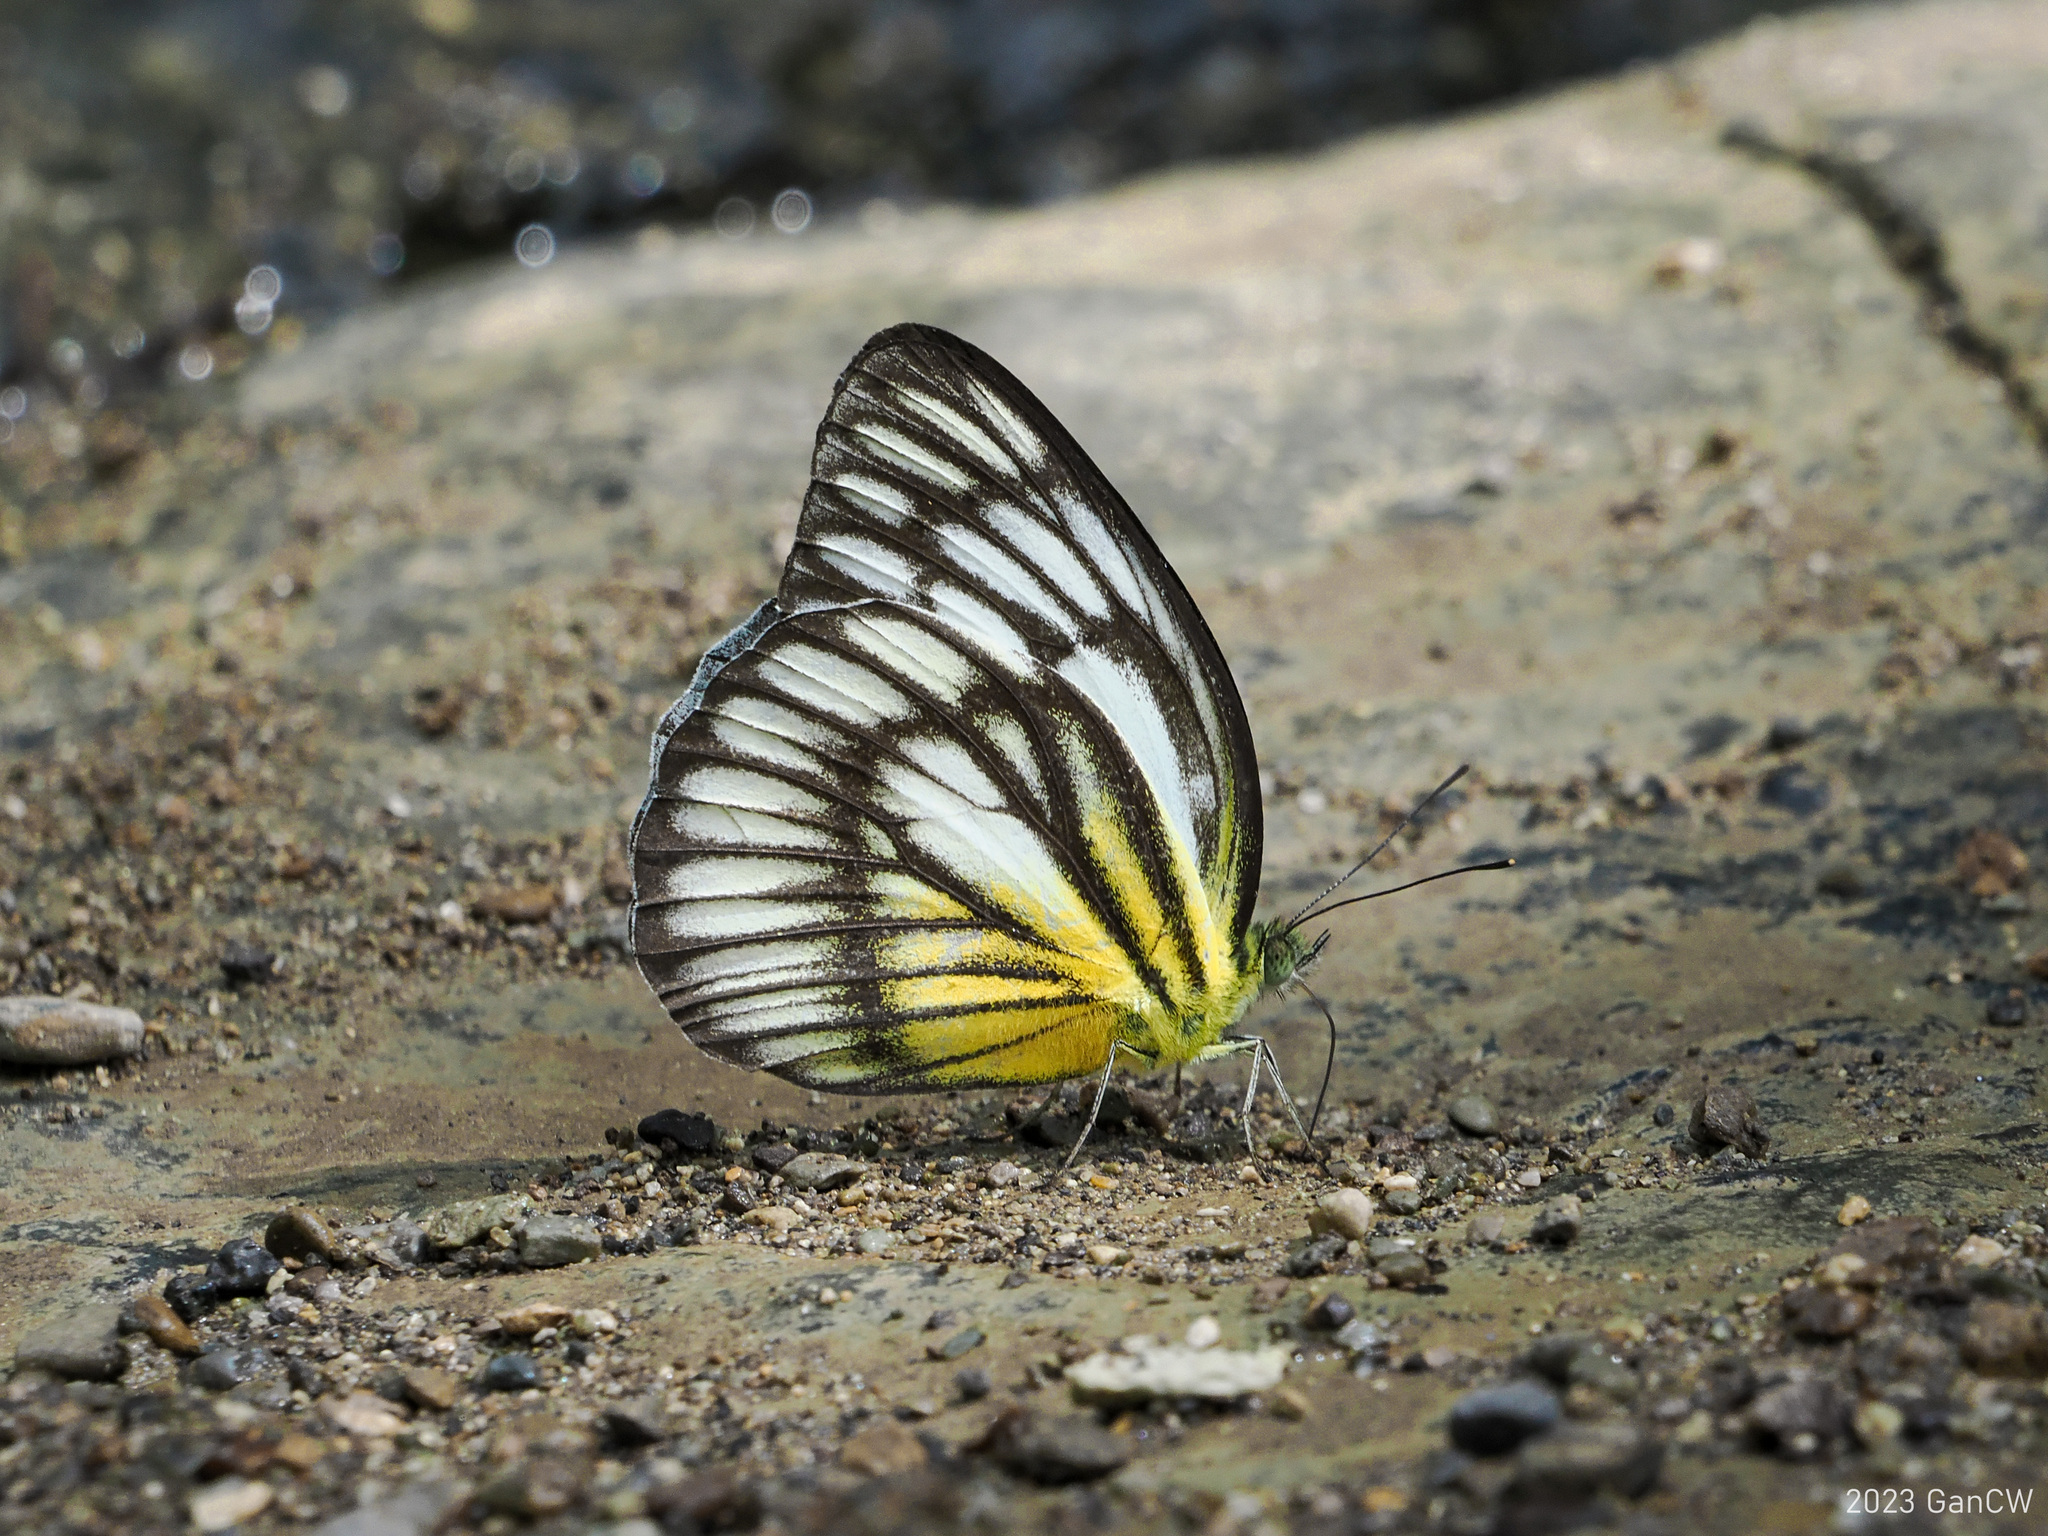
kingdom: Animalia
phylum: Arthropoda
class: Insecta
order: Lepidoptera
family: Pieridae
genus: Cepora
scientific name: Cepora celebensis
